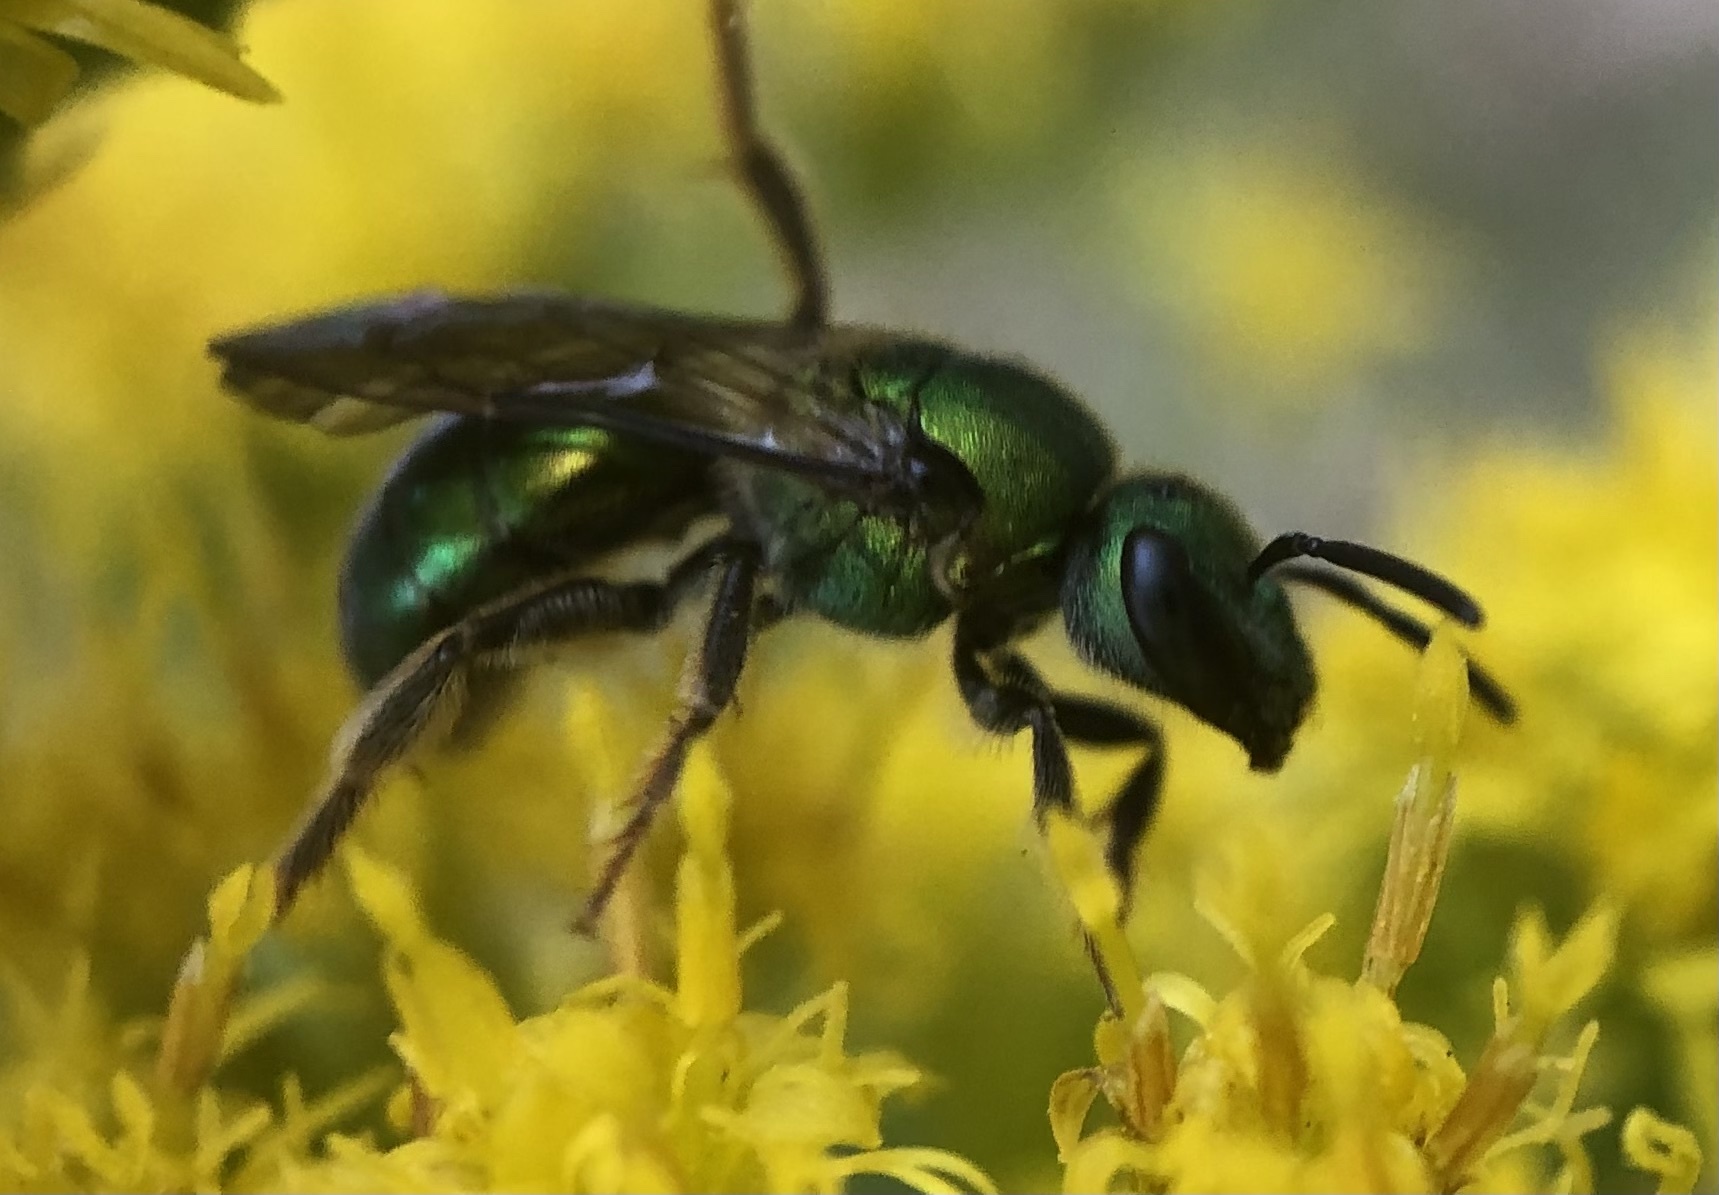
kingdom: Animalia
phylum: Arthropoda
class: Insecta
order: Hymenoptera
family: Halictidae
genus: Augochlora
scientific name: Augochlora pura
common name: Pure green sweat bee
